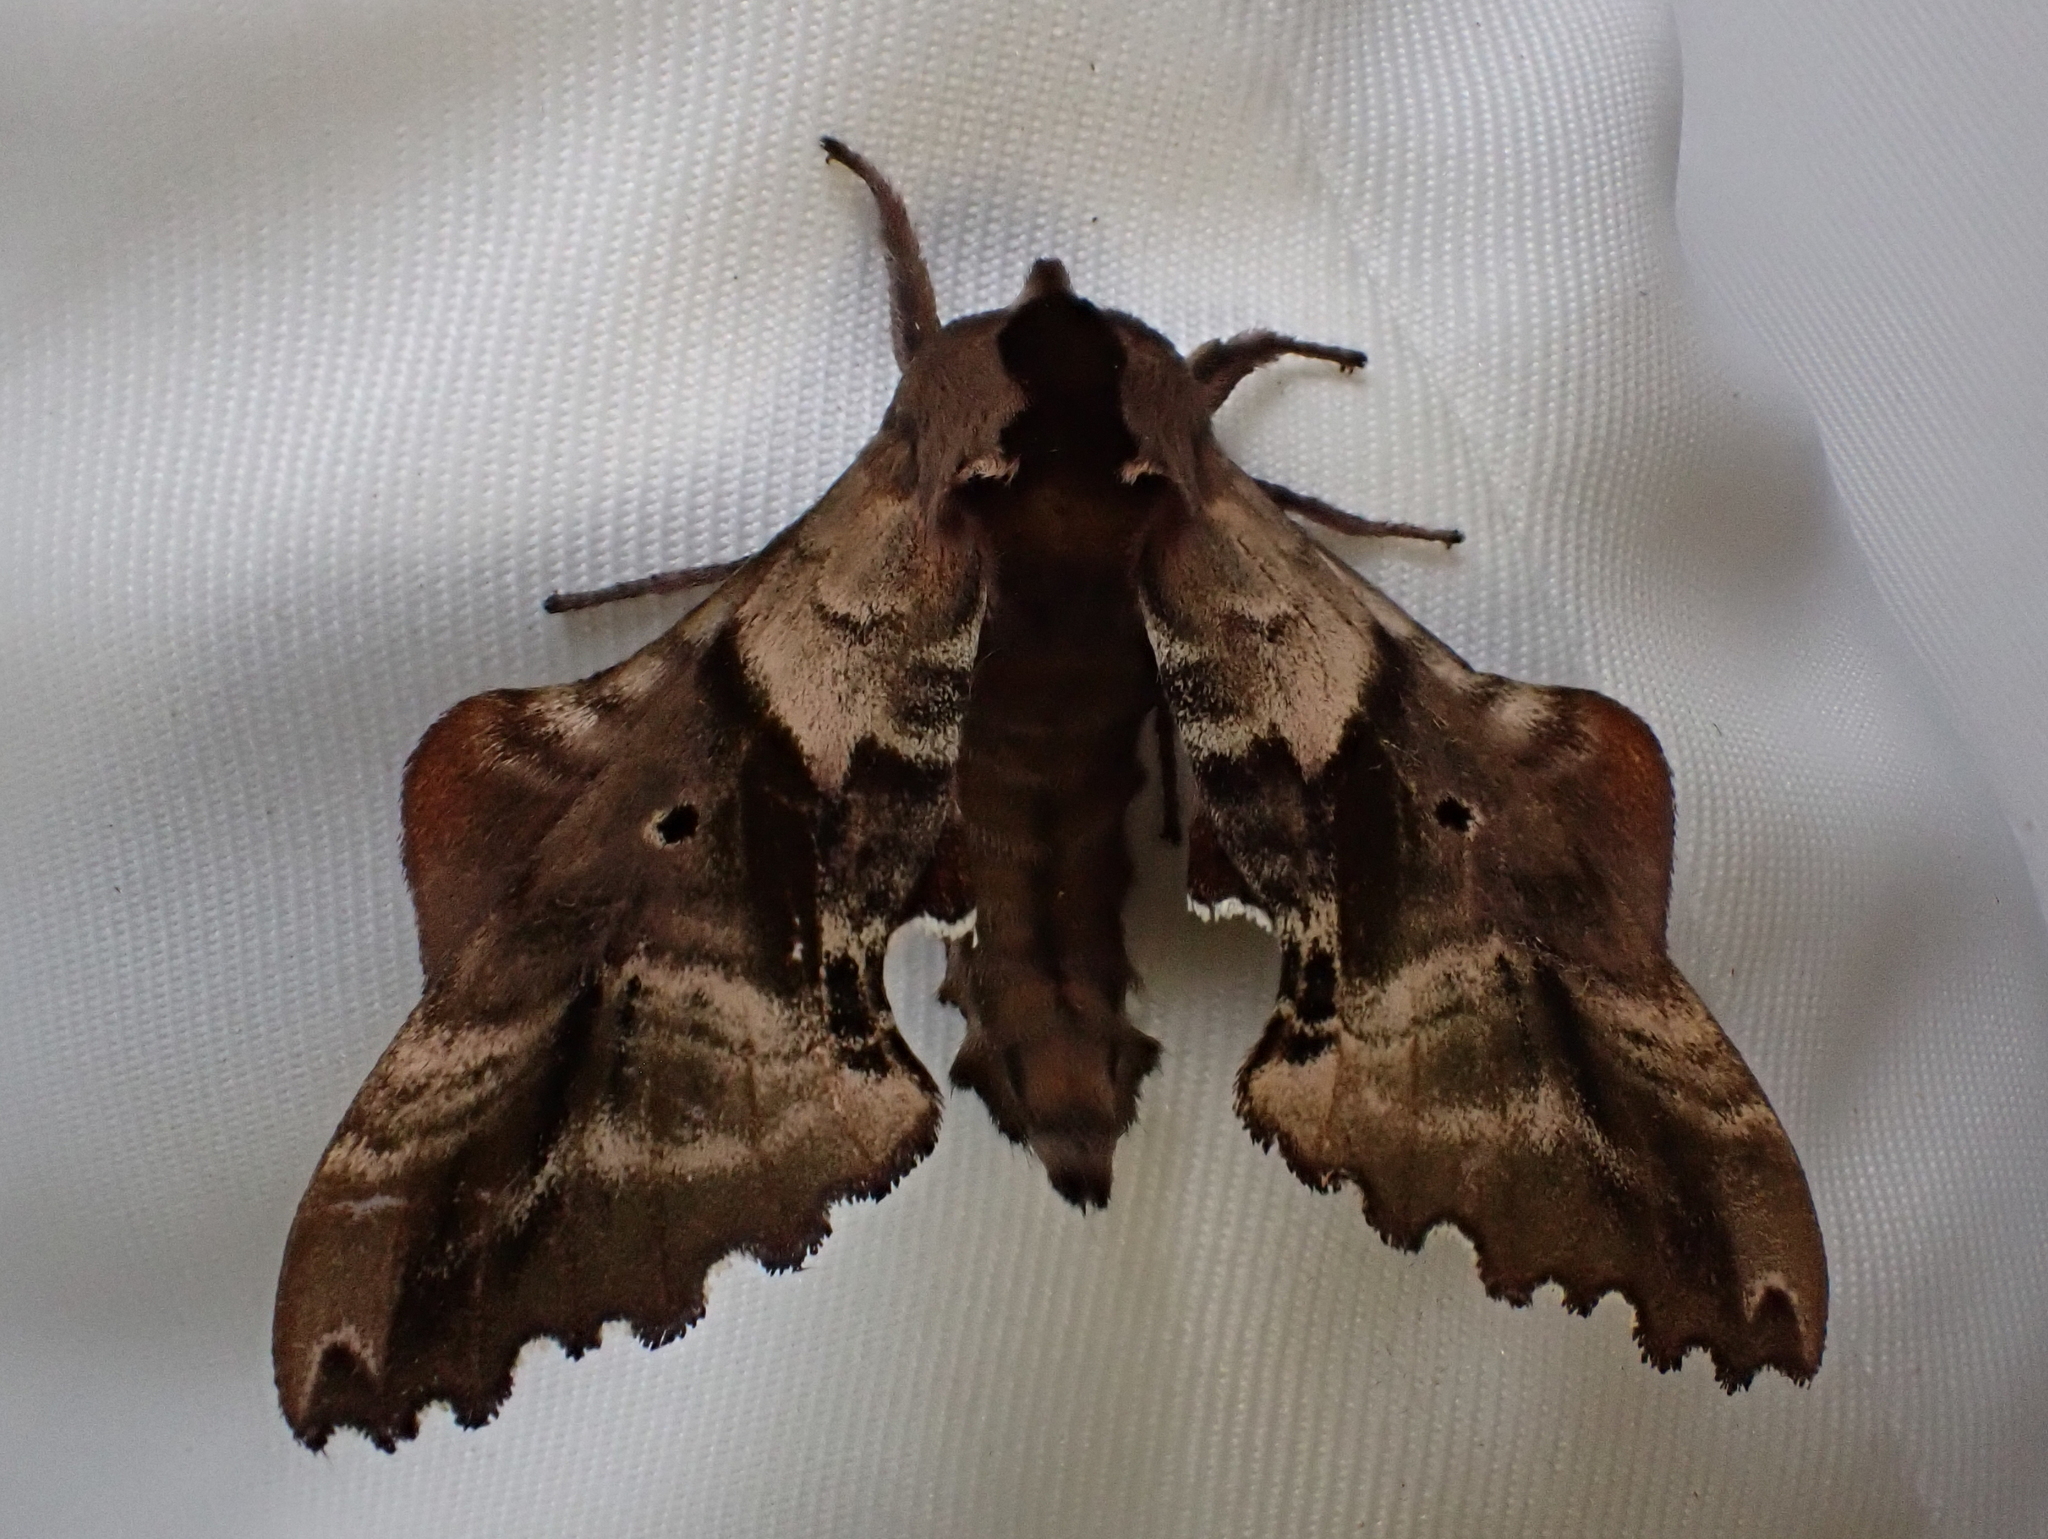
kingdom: Animalia
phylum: Arthropoda
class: Insecta
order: Lepidoptera
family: Sphingidae
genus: Paonias
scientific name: Paonias excaecata
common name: Blind-eyed sphinx
